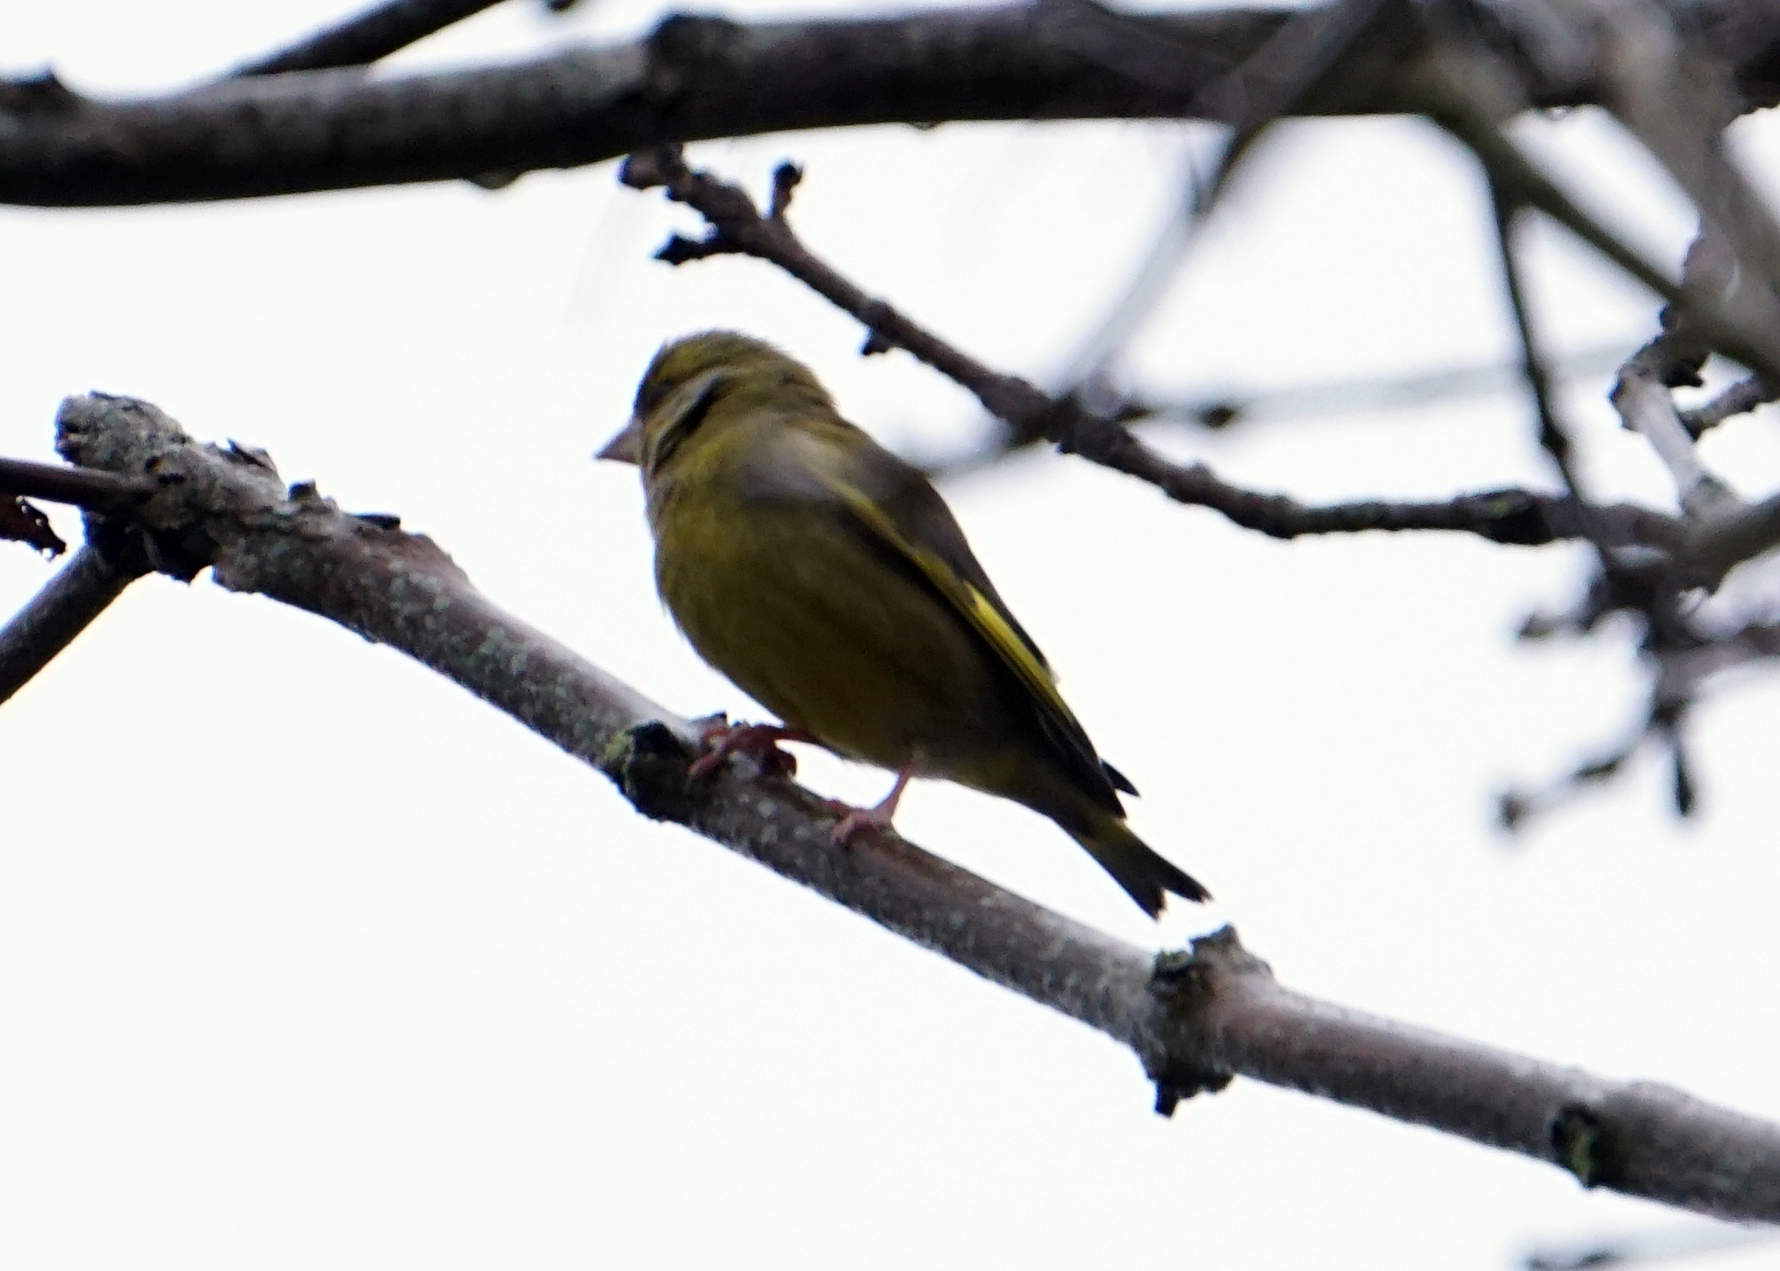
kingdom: Plantae
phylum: Tracheophyta
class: Liliopsida
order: Poales
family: Poaceae
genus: Chloris
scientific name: Chloris chloris
